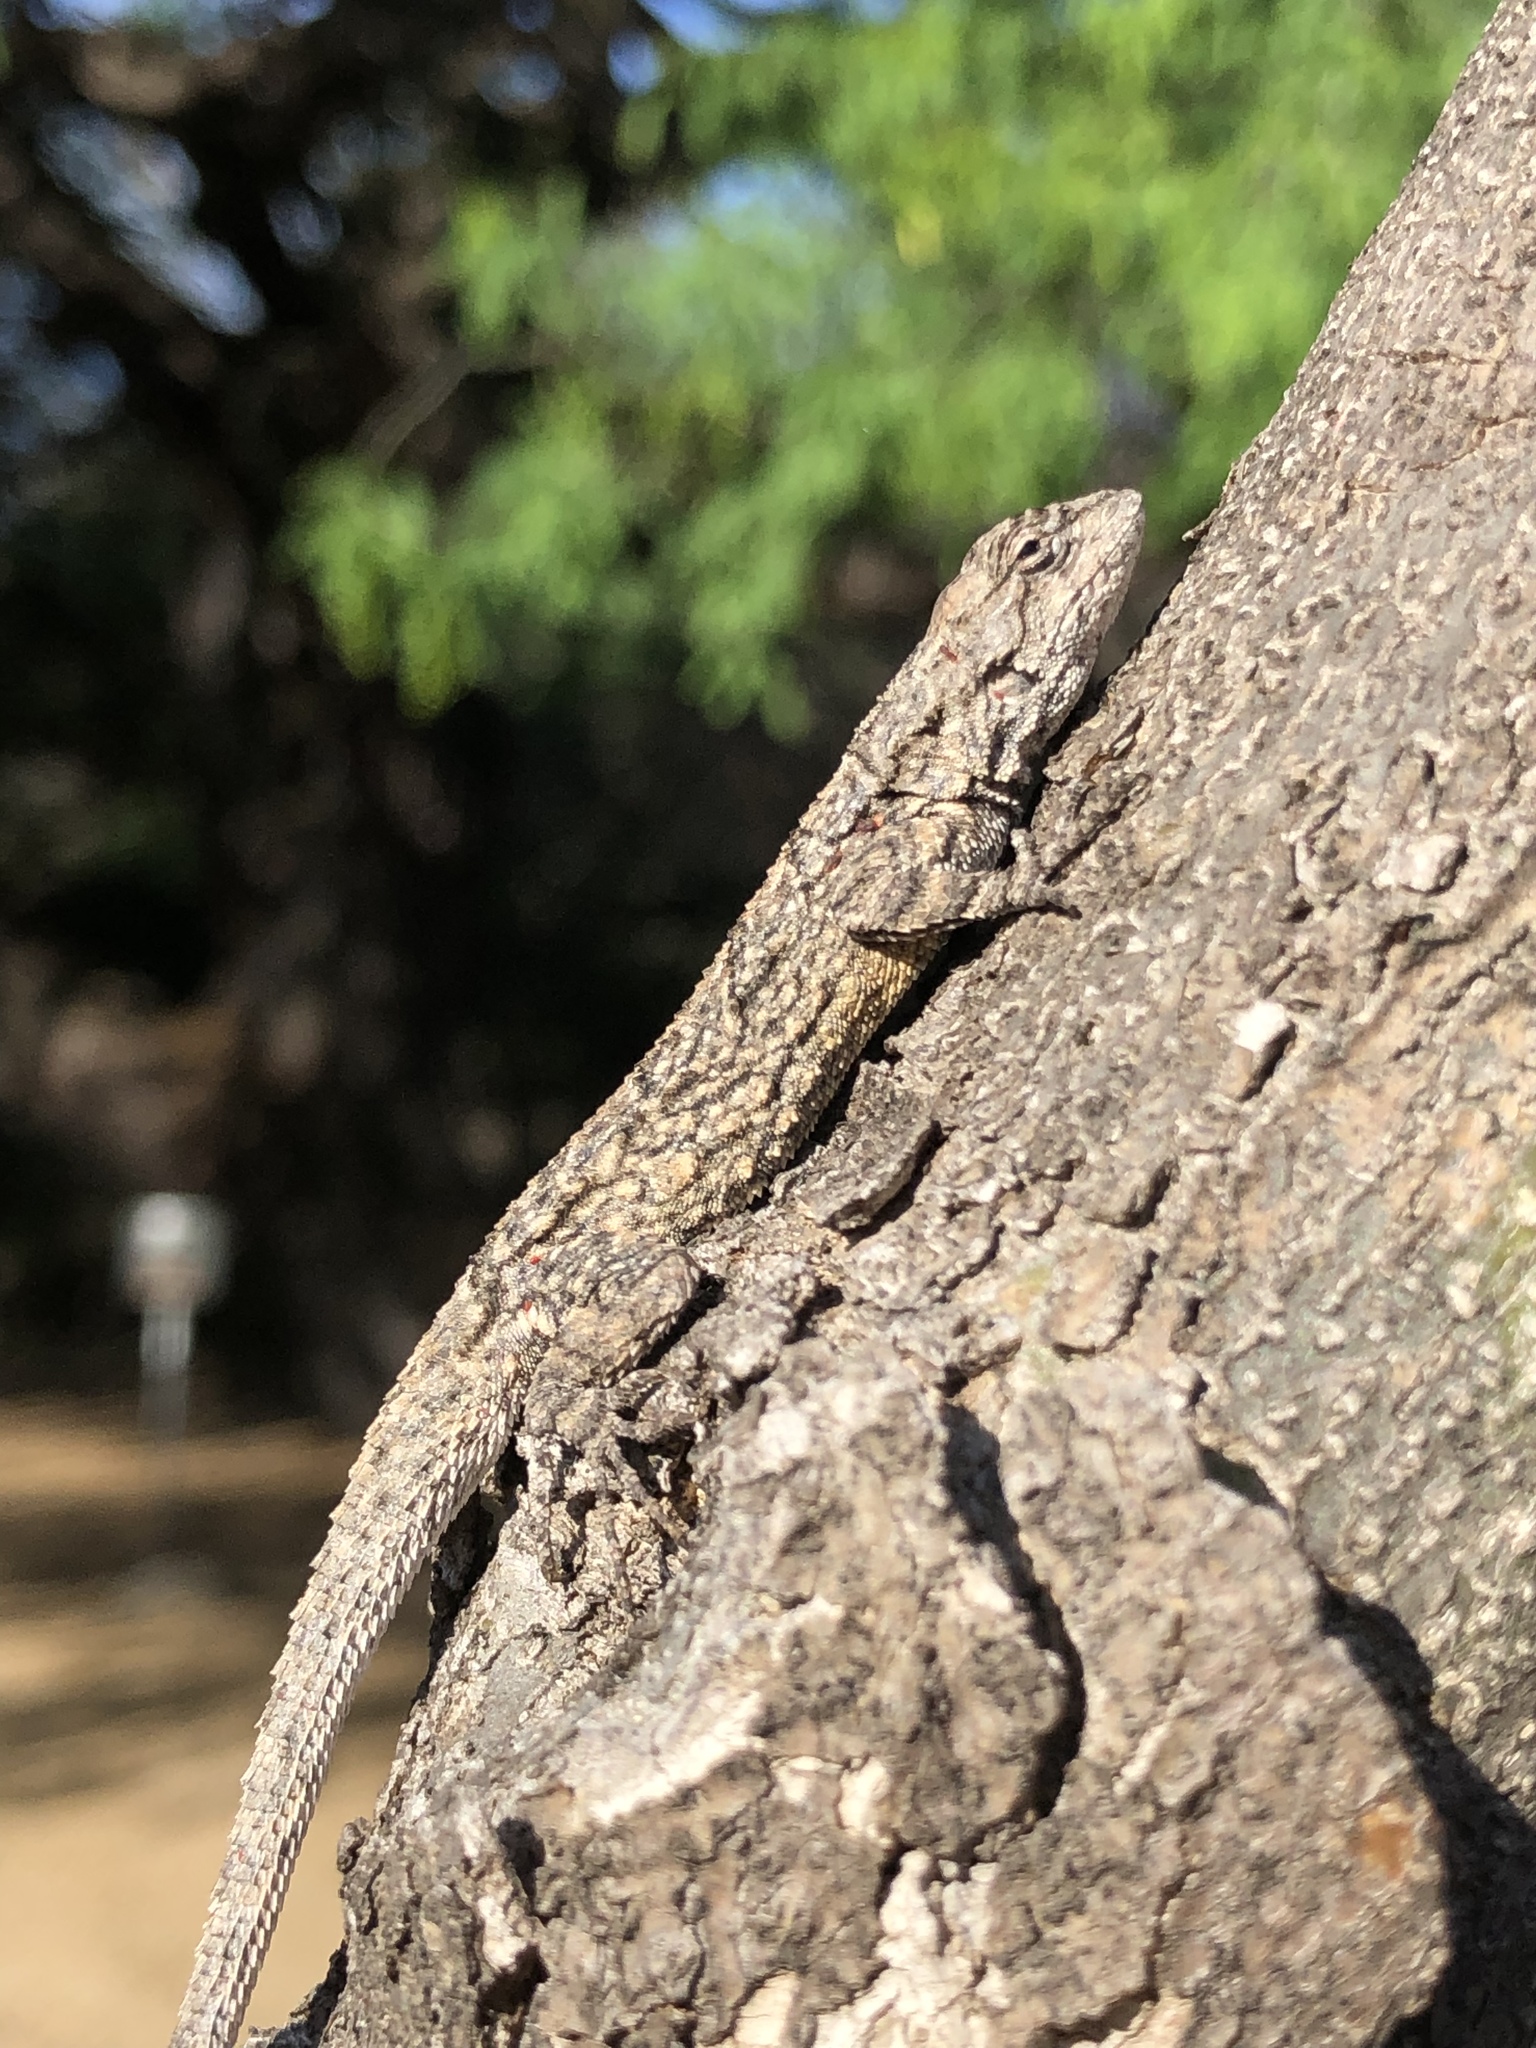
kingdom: Animalia
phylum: Chordata
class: Squamata
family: Phrynosomatidae
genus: Urosaurus
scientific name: Urosaurus bicarinatus
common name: Tropical tree lizard
